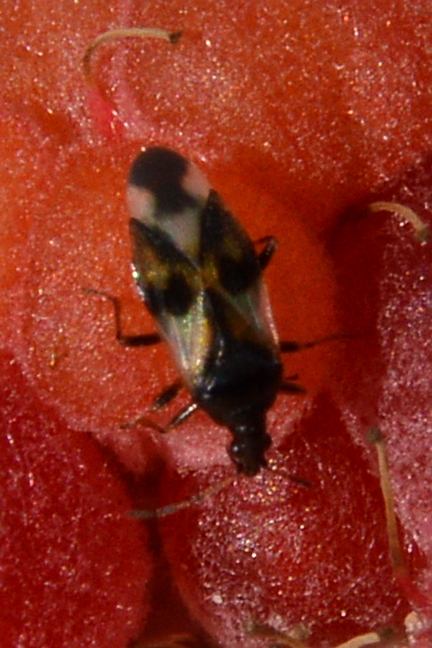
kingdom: Animalia
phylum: Arthropoda
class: Insecta
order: Hemiptera
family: Anthocoridae
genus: Anthocoris
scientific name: Anthocoris nemorum
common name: Minute pirate bug
